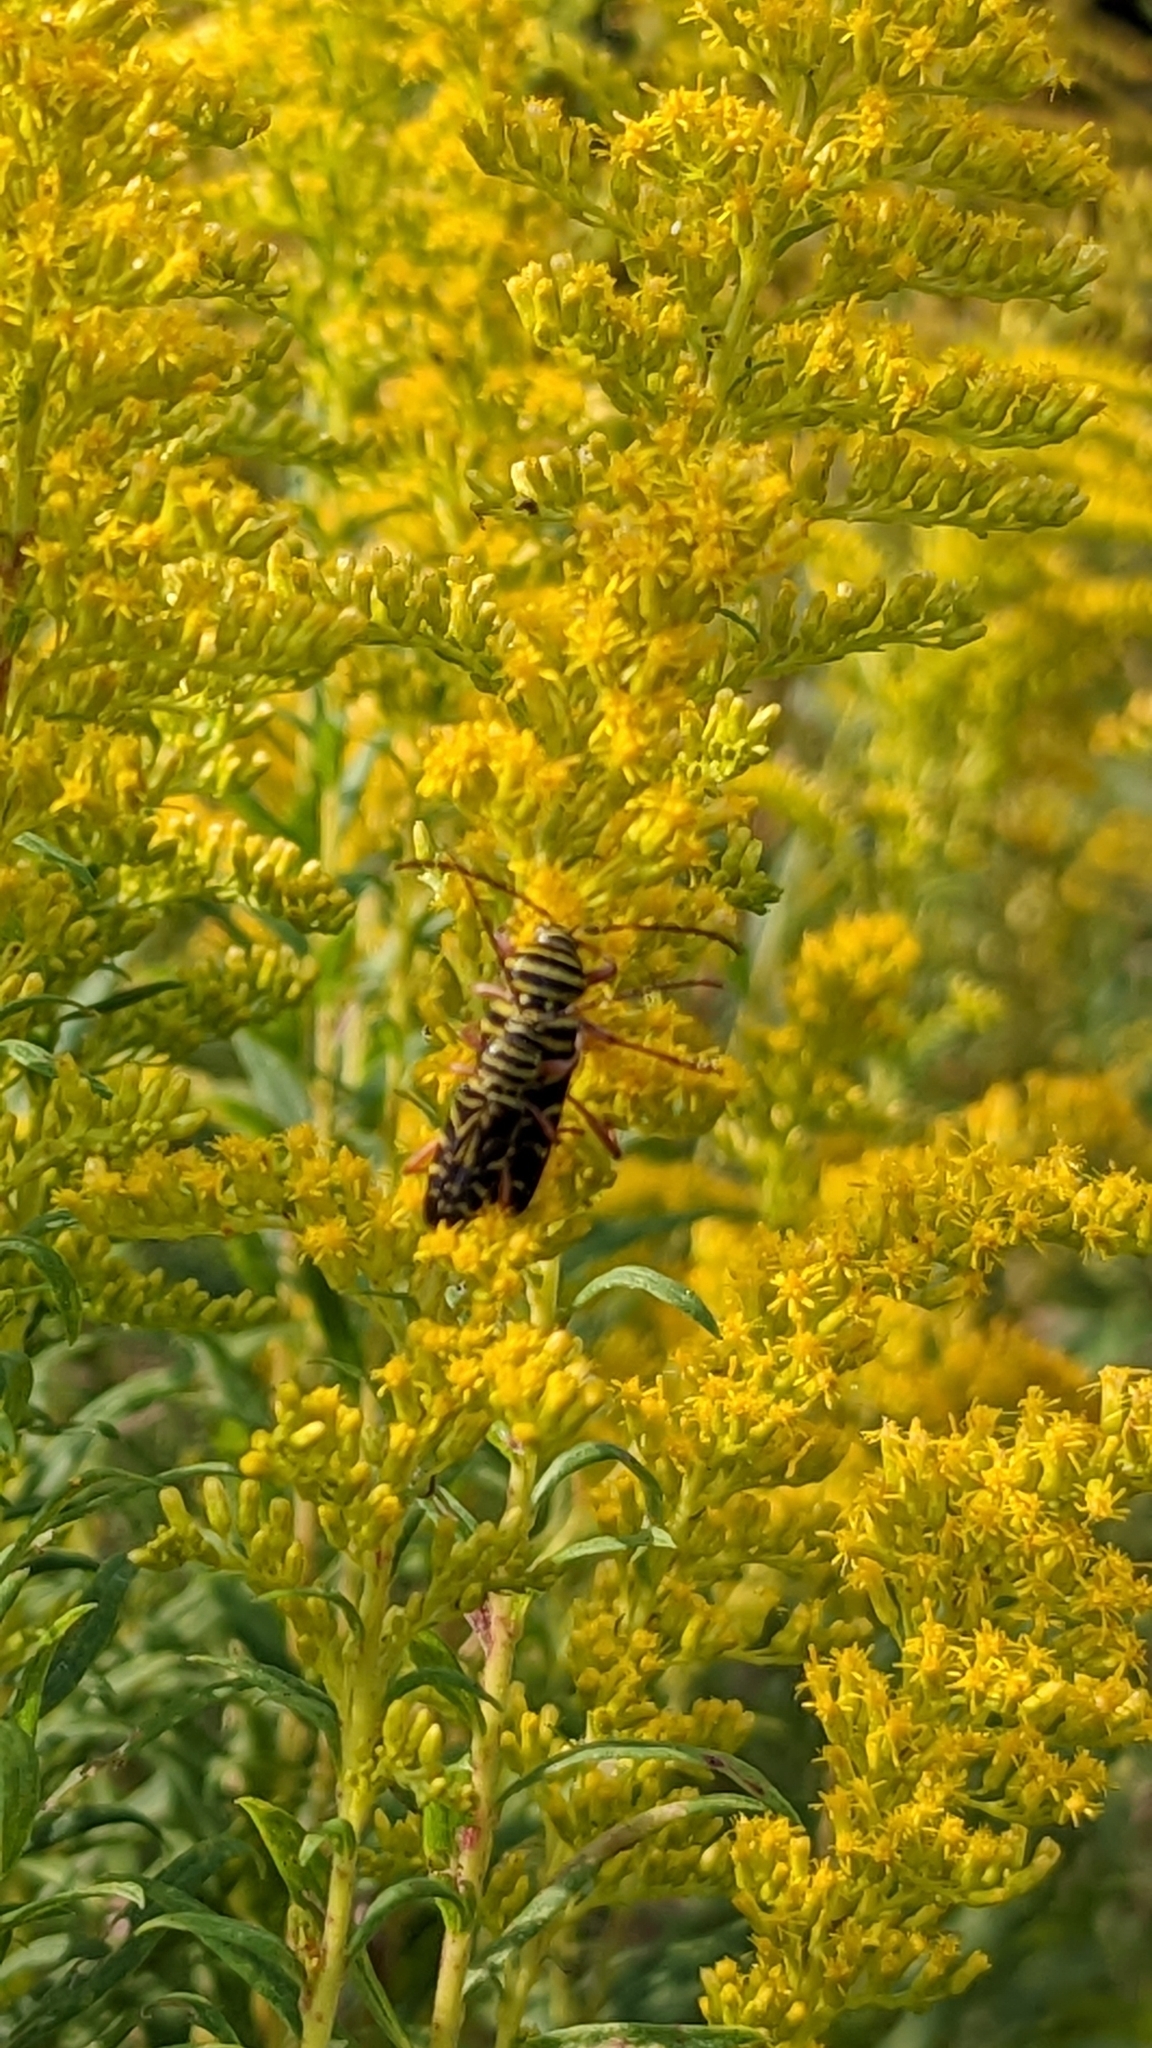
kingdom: Animalia
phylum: Arthropoda
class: Insecta
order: Coleoptera
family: Cerambycidae
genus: Megacyllene
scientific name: Megacyllene robiniae
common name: Locust borer
